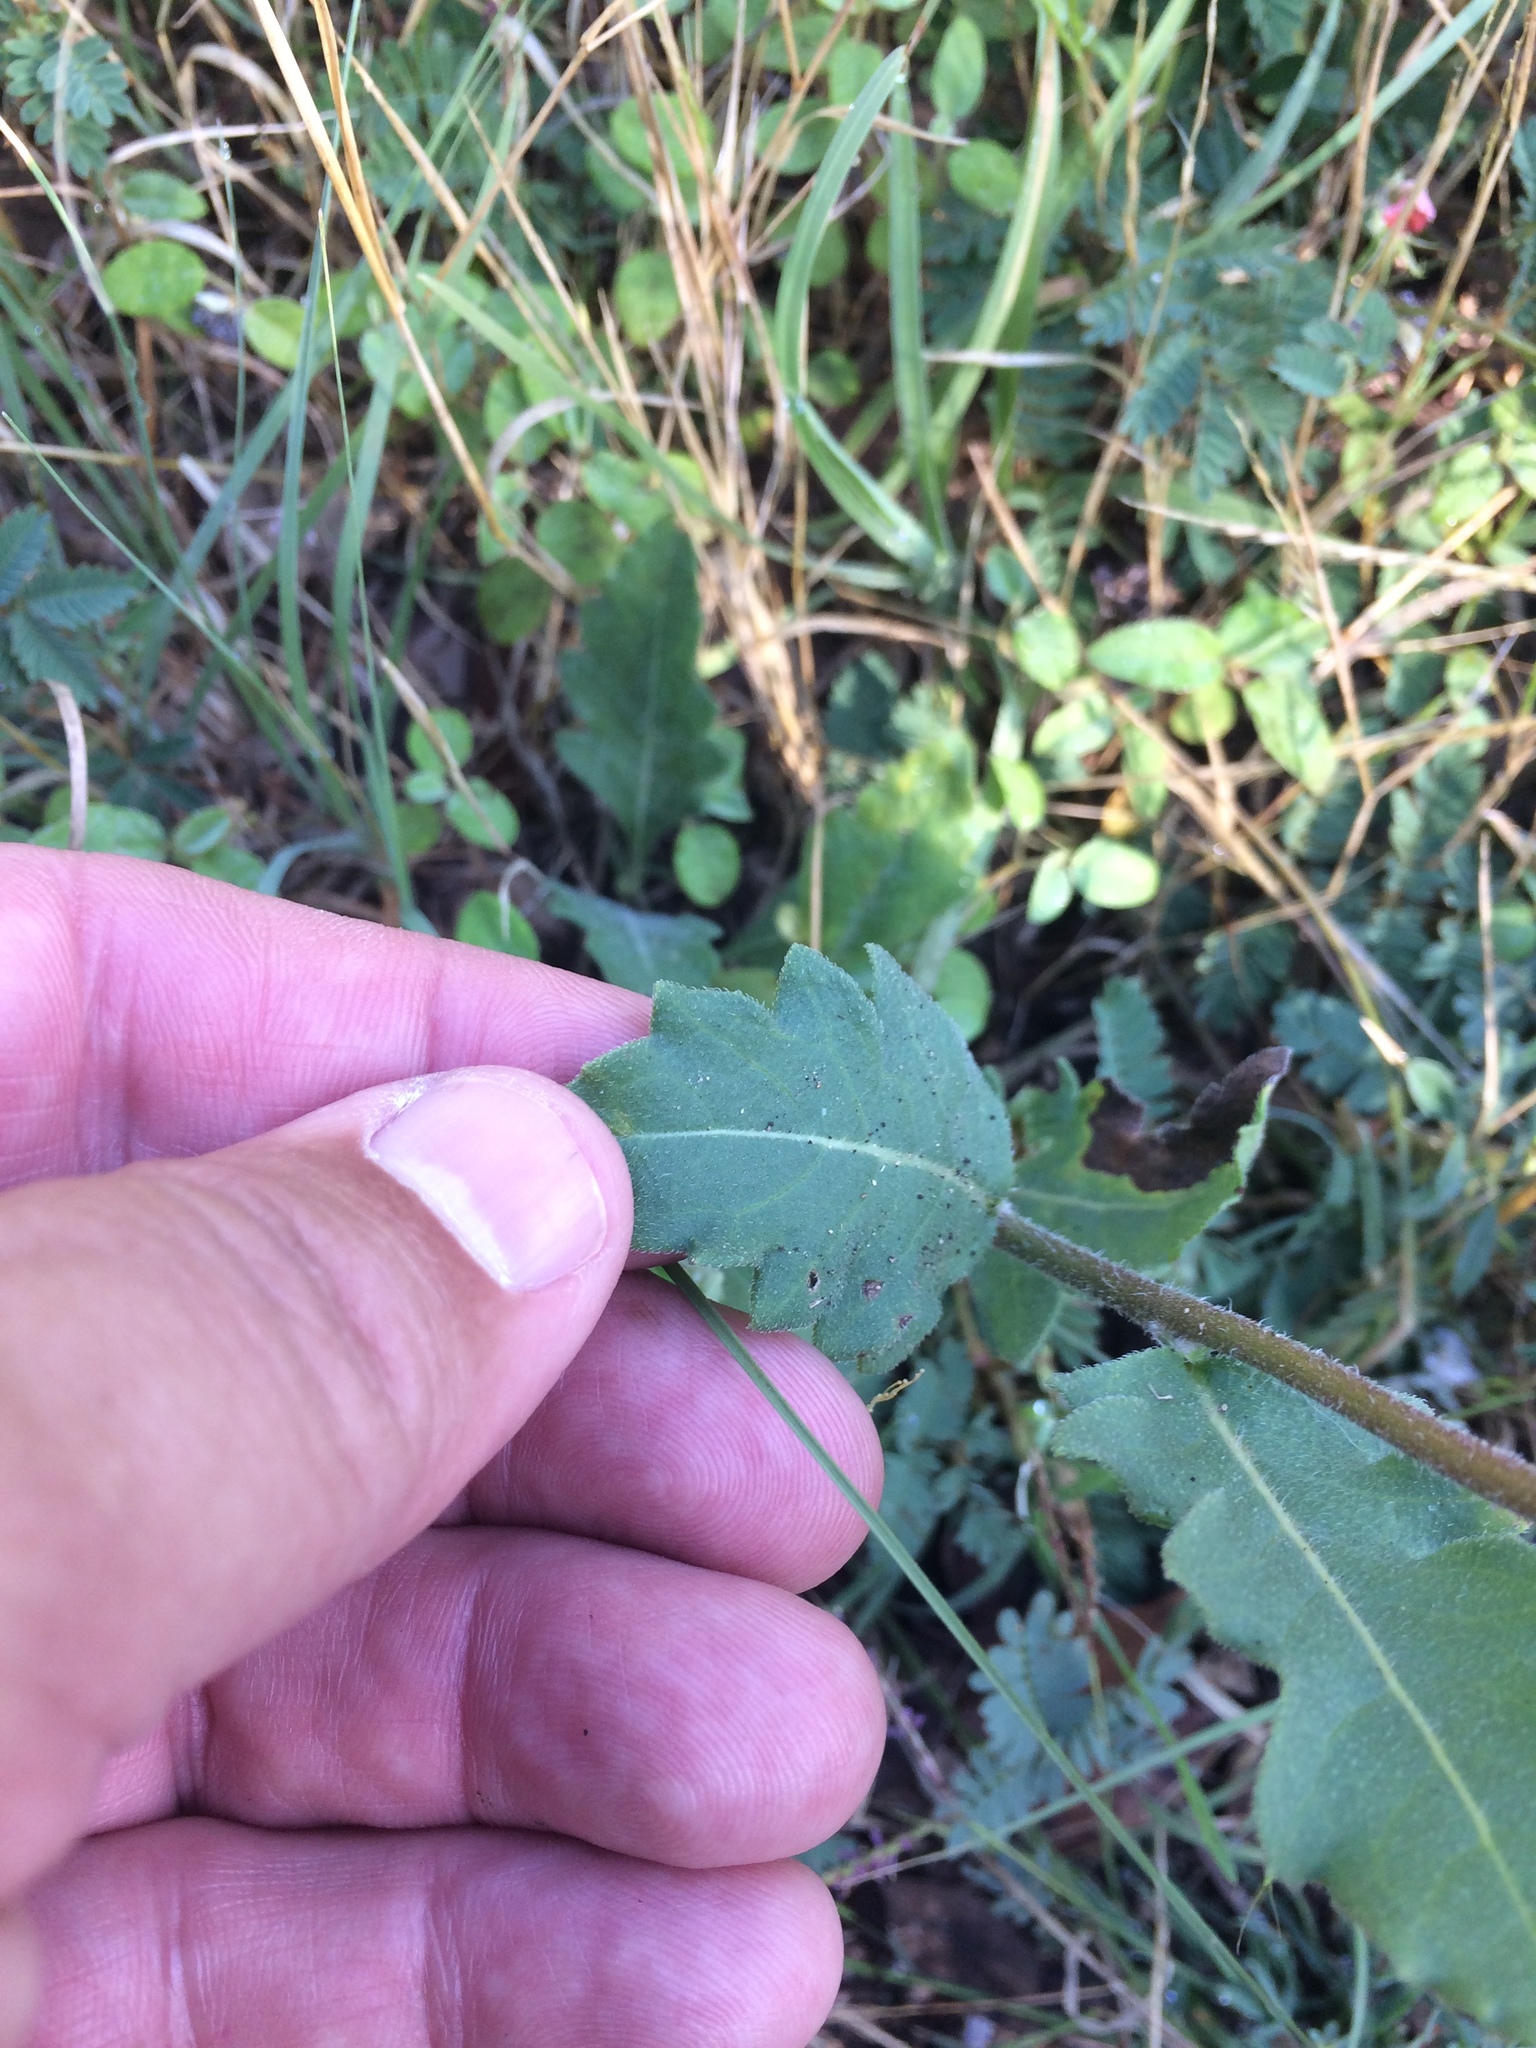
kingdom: Plantae
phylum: Tracheophyta
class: Magnoliopsida
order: Asterales
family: Asteraceae
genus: Engelmannia
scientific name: Engelmannia peristenia
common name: Engelmann's daisy
